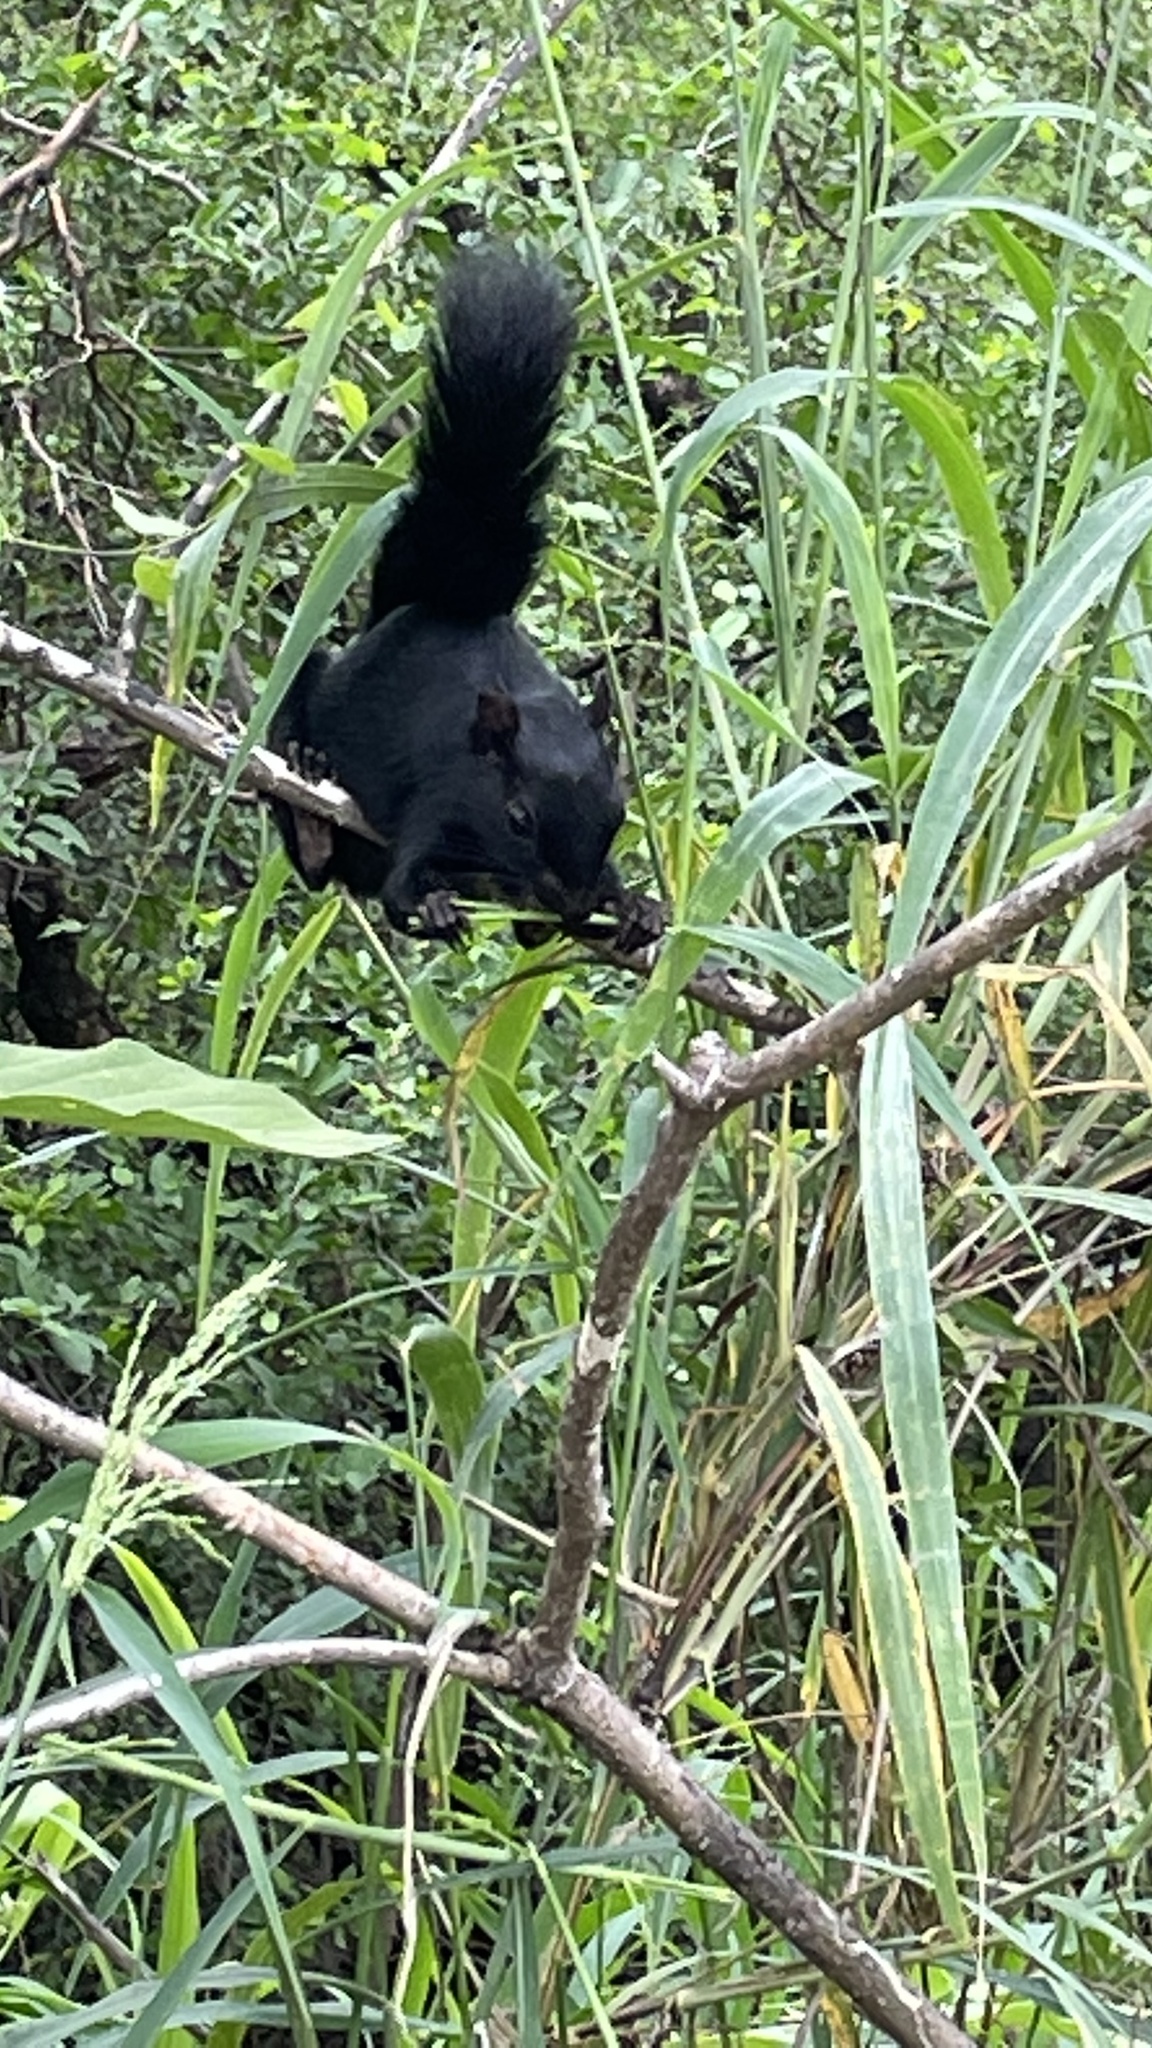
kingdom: Animalia
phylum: Chordata
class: Mammalia
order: Rodentia
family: Sciuridae
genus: Sciurus
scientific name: Sciurus aureogaster
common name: Red-bellied squirrel
